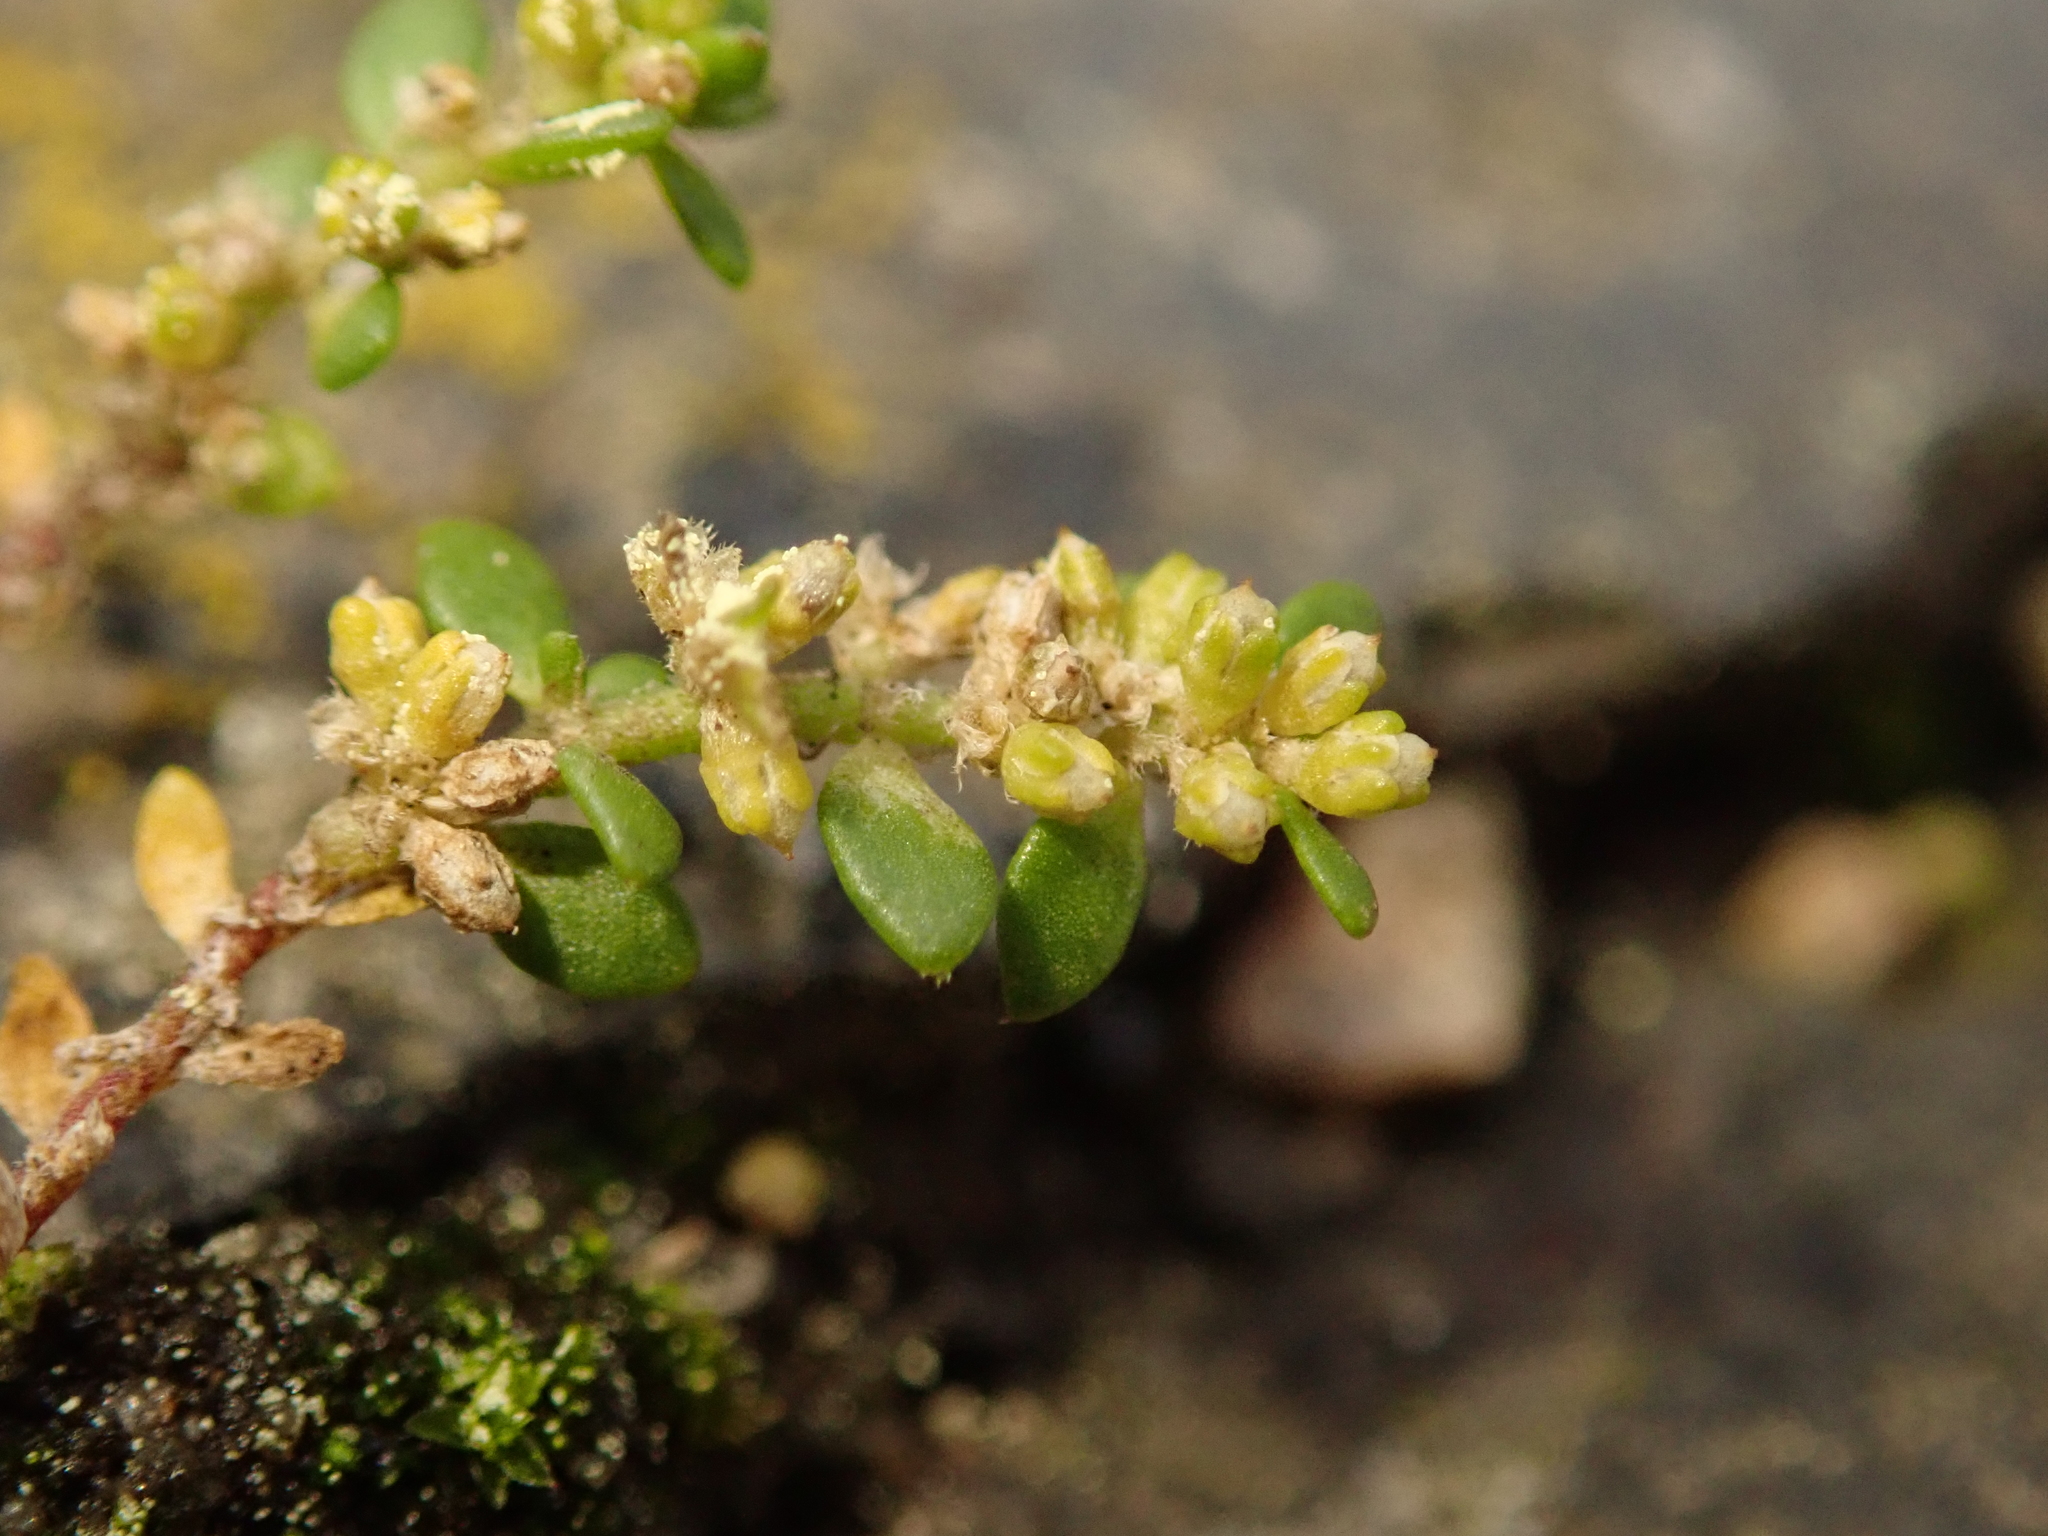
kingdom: Plantae
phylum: Tracheophyta
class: Magnoliopsida
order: Caryophyllales
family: Caryophyllaceae
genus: Herniaria
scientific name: Herniaria glabra
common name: Smooth rupturewort
